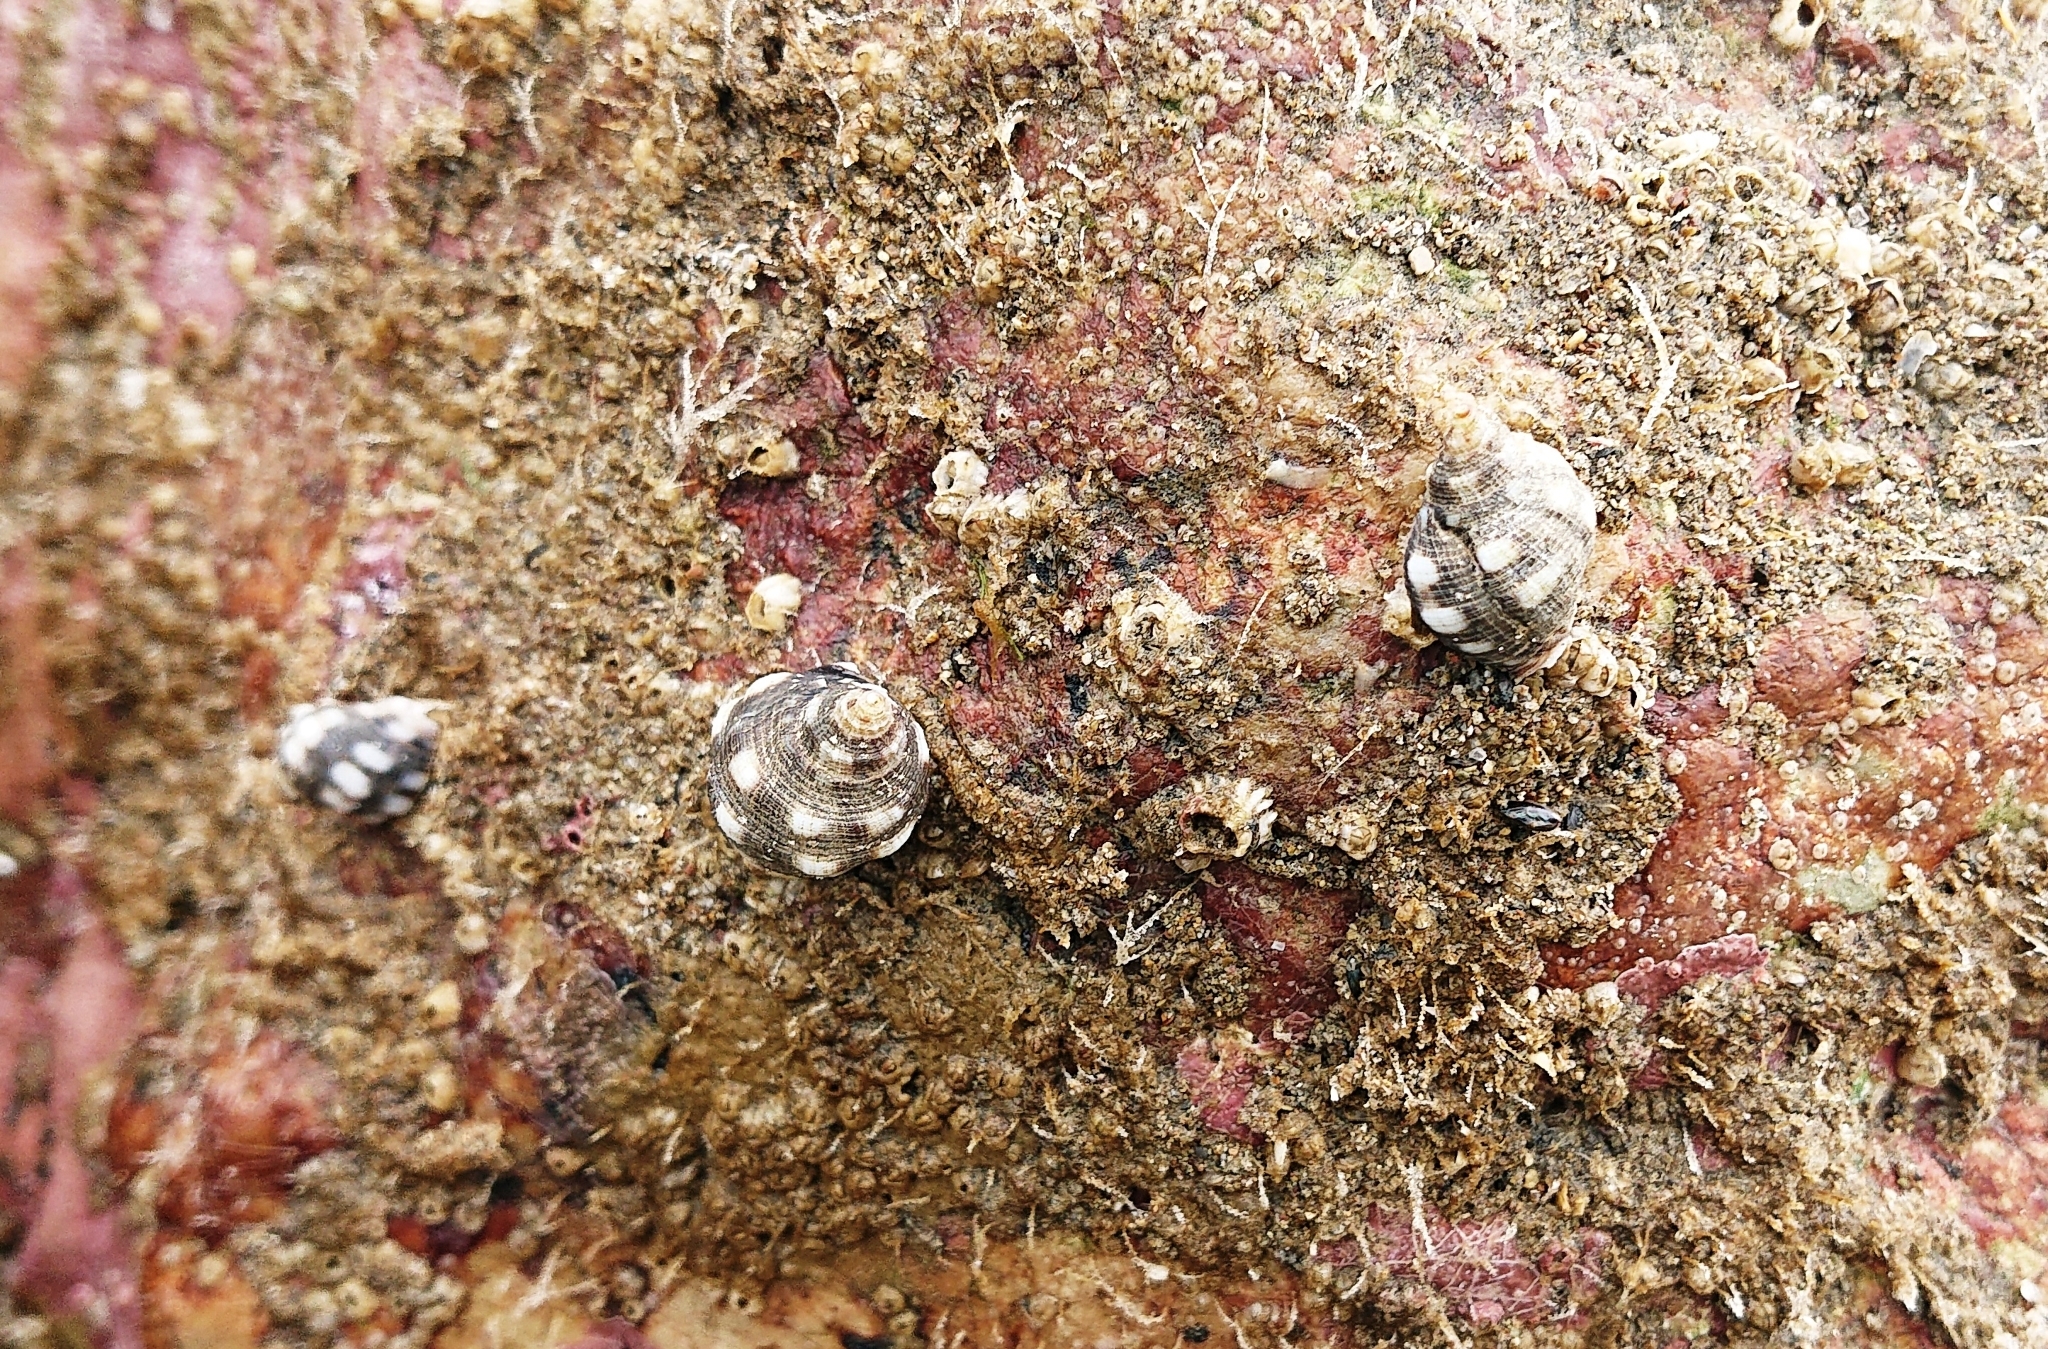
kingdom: Animalia
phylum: Mollusca
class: Gastropoda
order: Neogastropoda
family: Muricidae
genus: Acanthais
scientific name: Acanthais brevidentata
